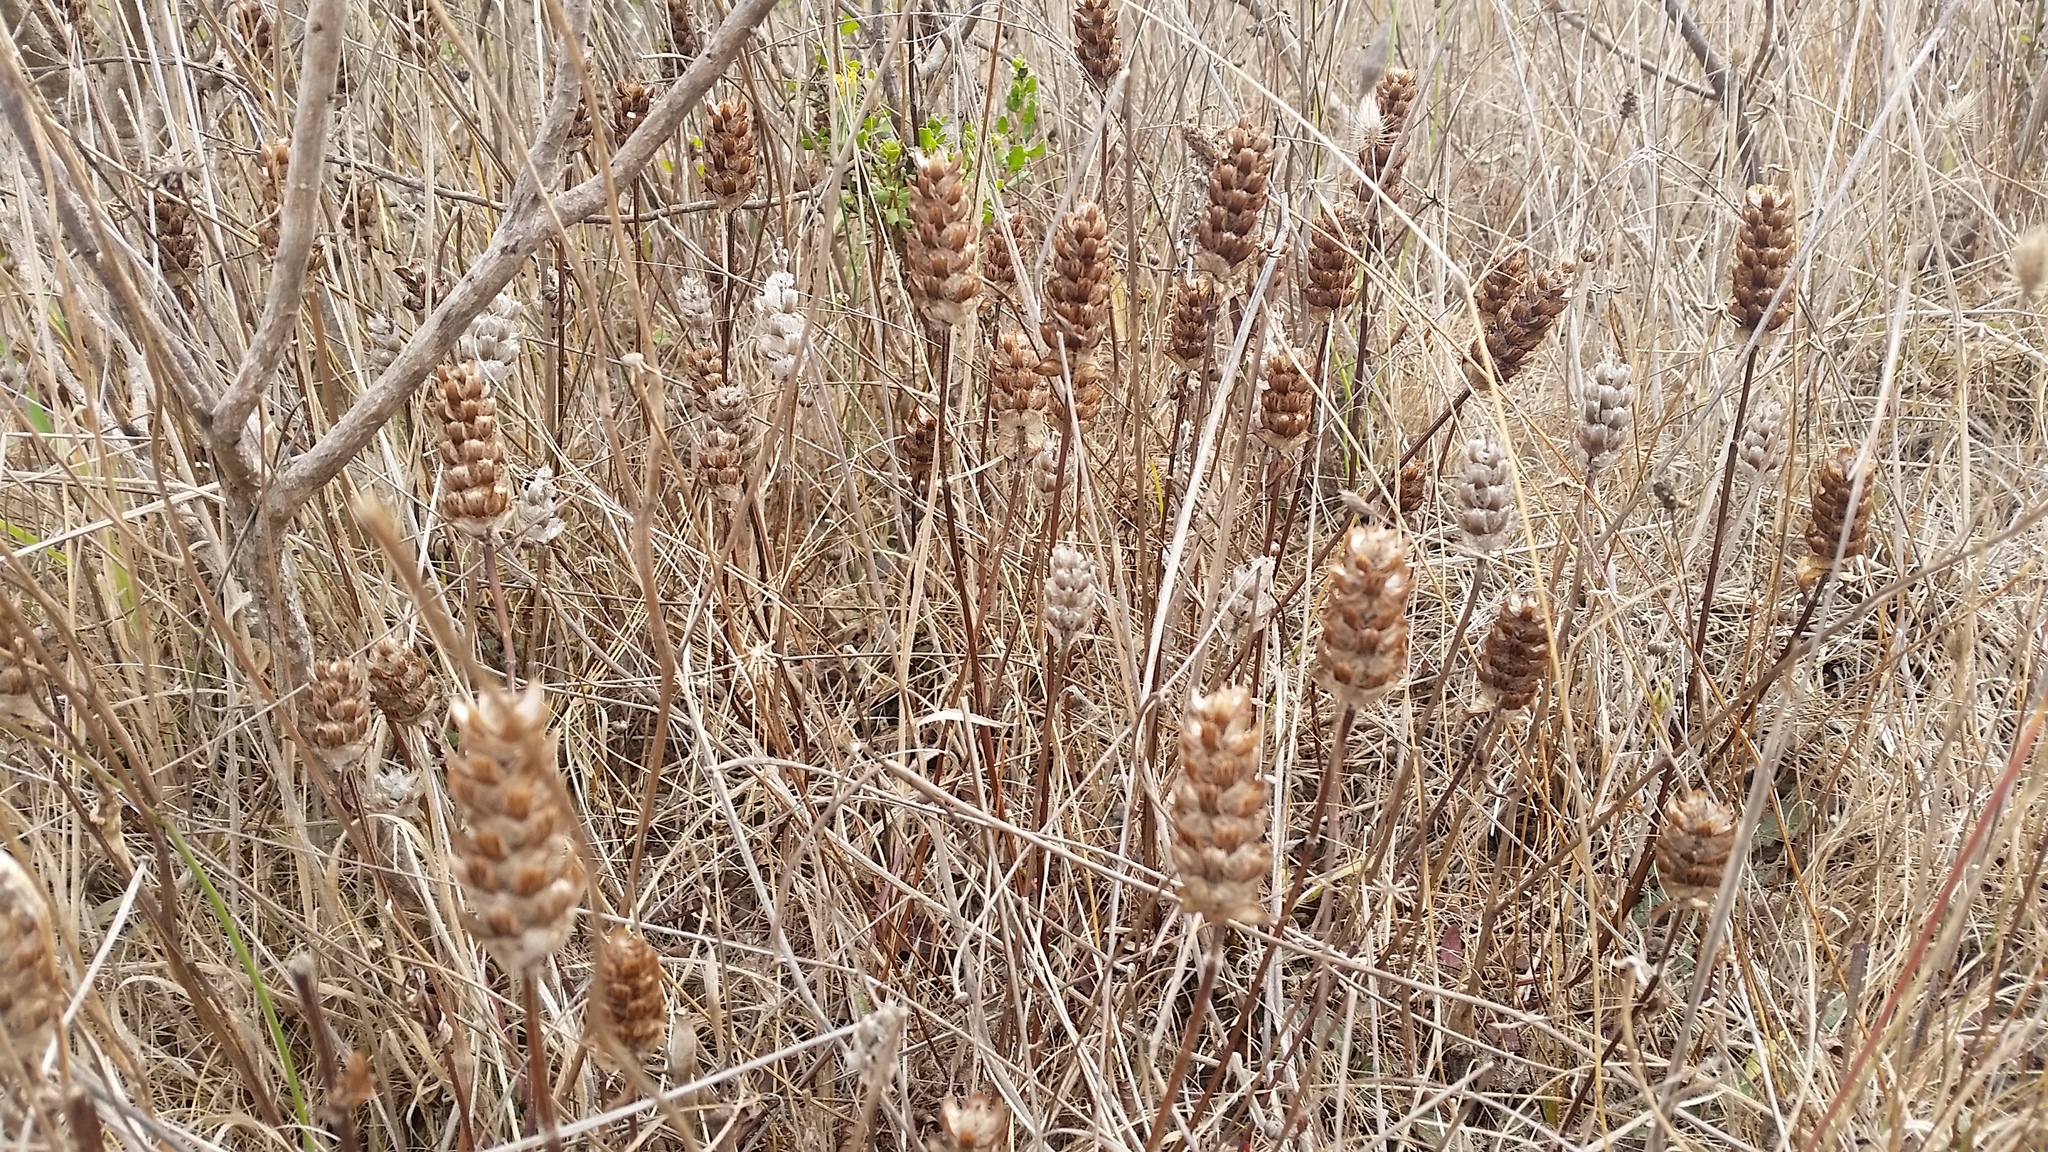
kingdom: Plantae
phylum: Tracheophyta
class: Magnoliopsida
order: Lamiales
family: Lamiaceae
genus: Prunella
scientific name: Prunella vulgaris
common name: Heal-all
